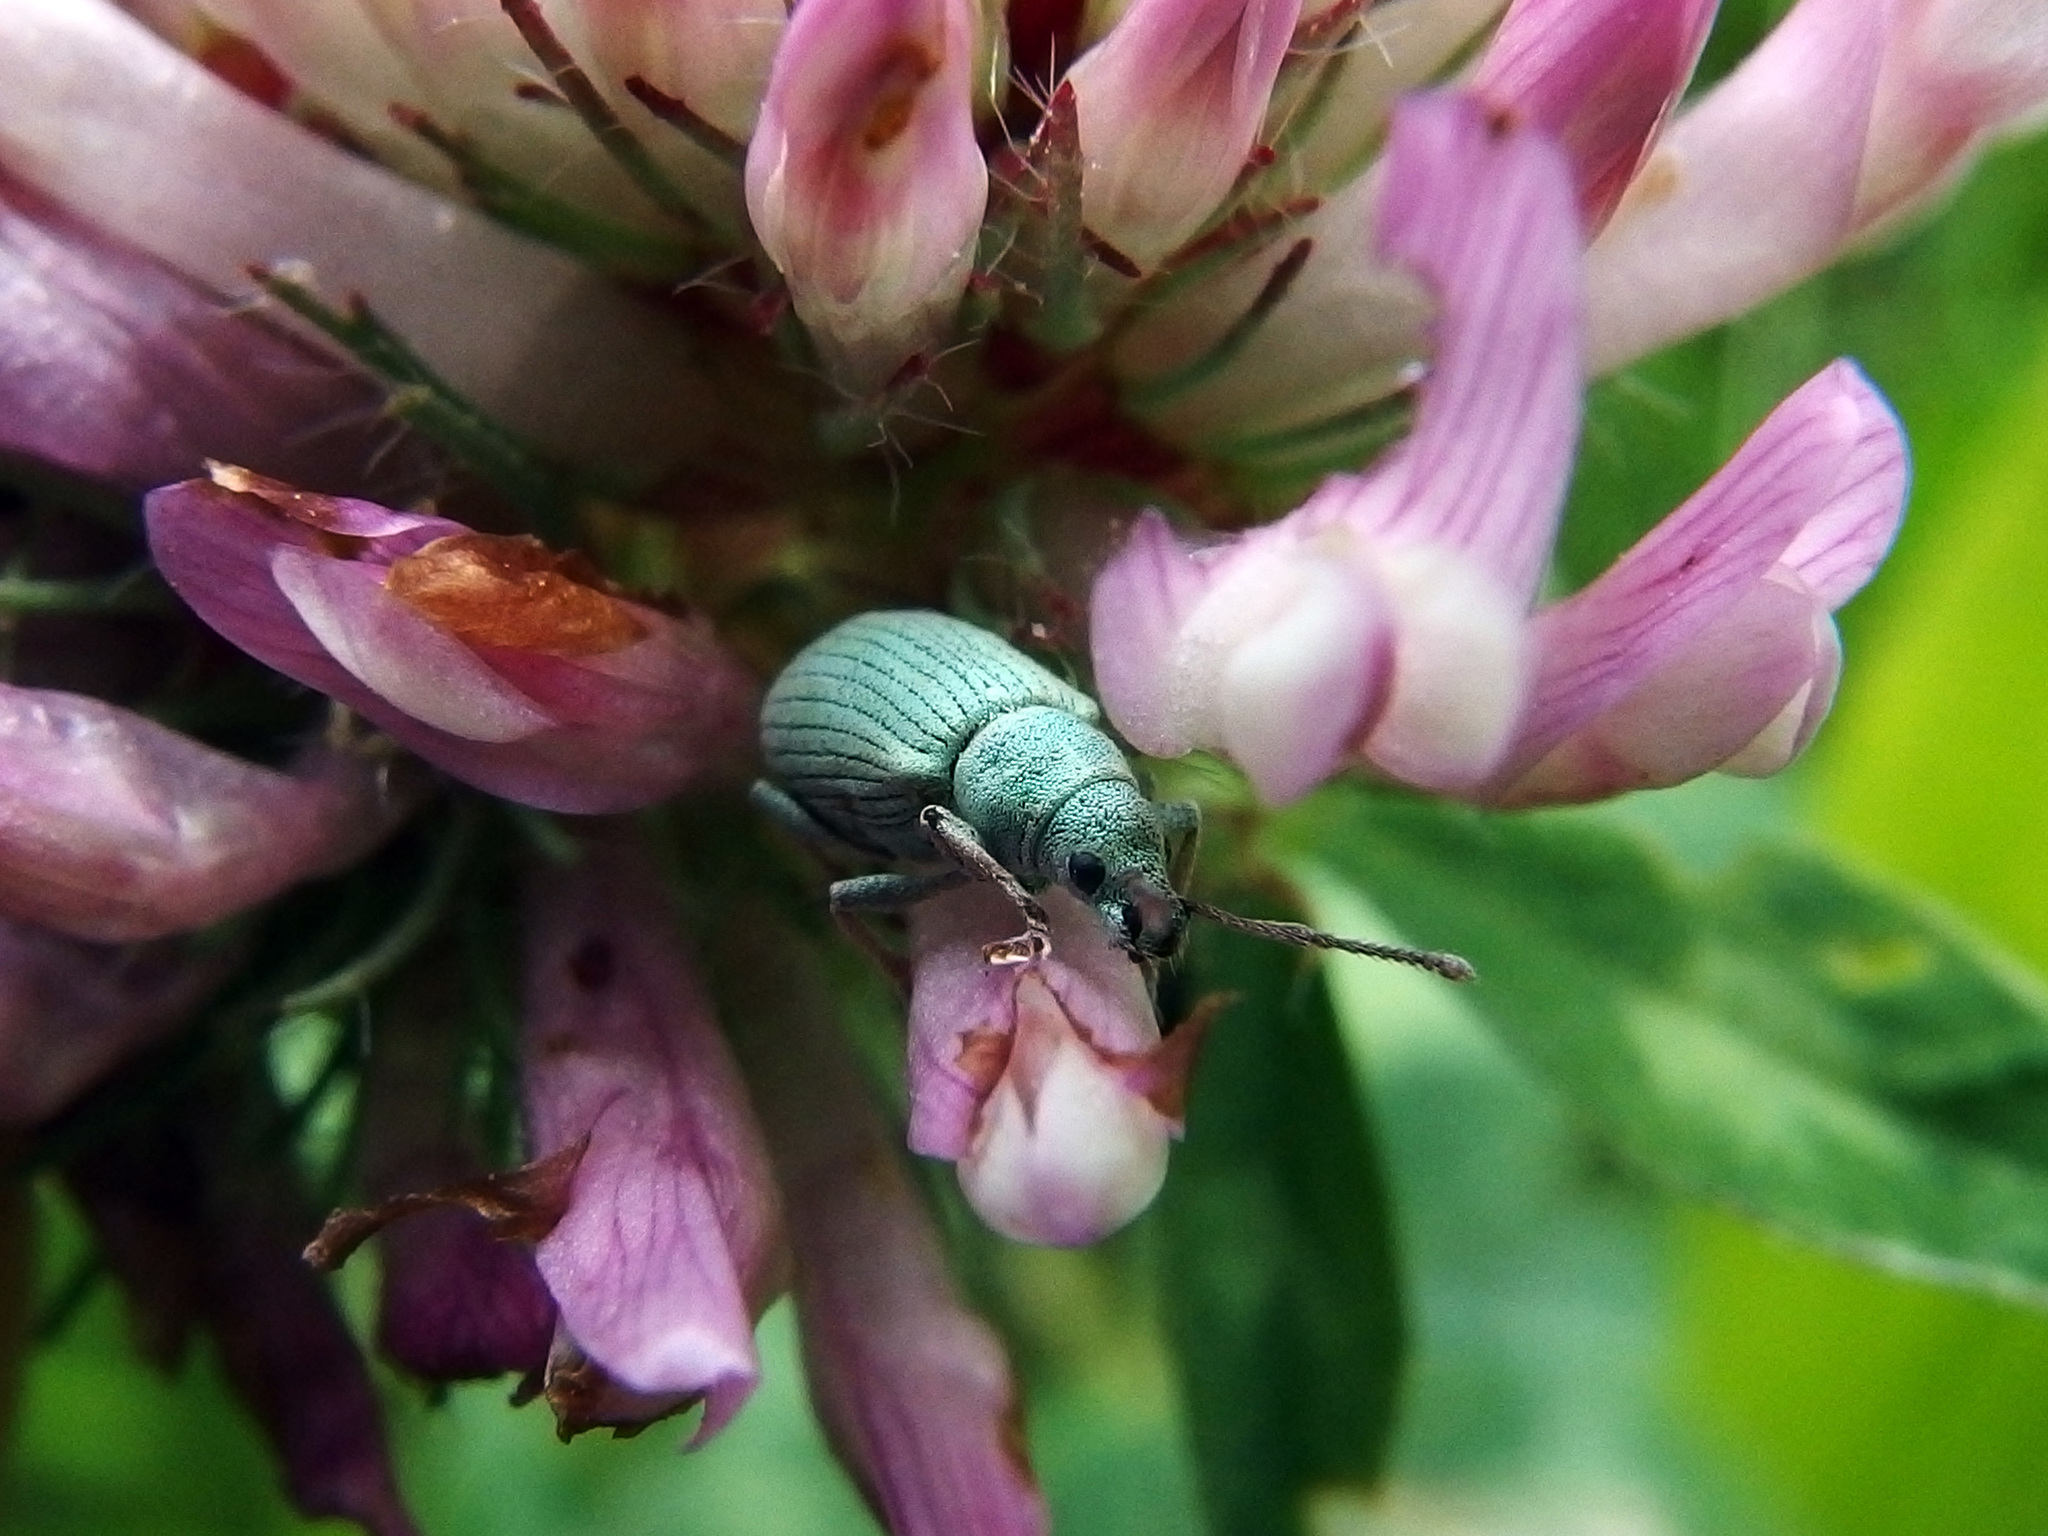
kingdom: Animalia
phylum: Arthropoda
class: Insecta
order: Coleoptera
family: Curculionidae
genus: Phyllobius
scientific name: Phyllobius virideaeris
